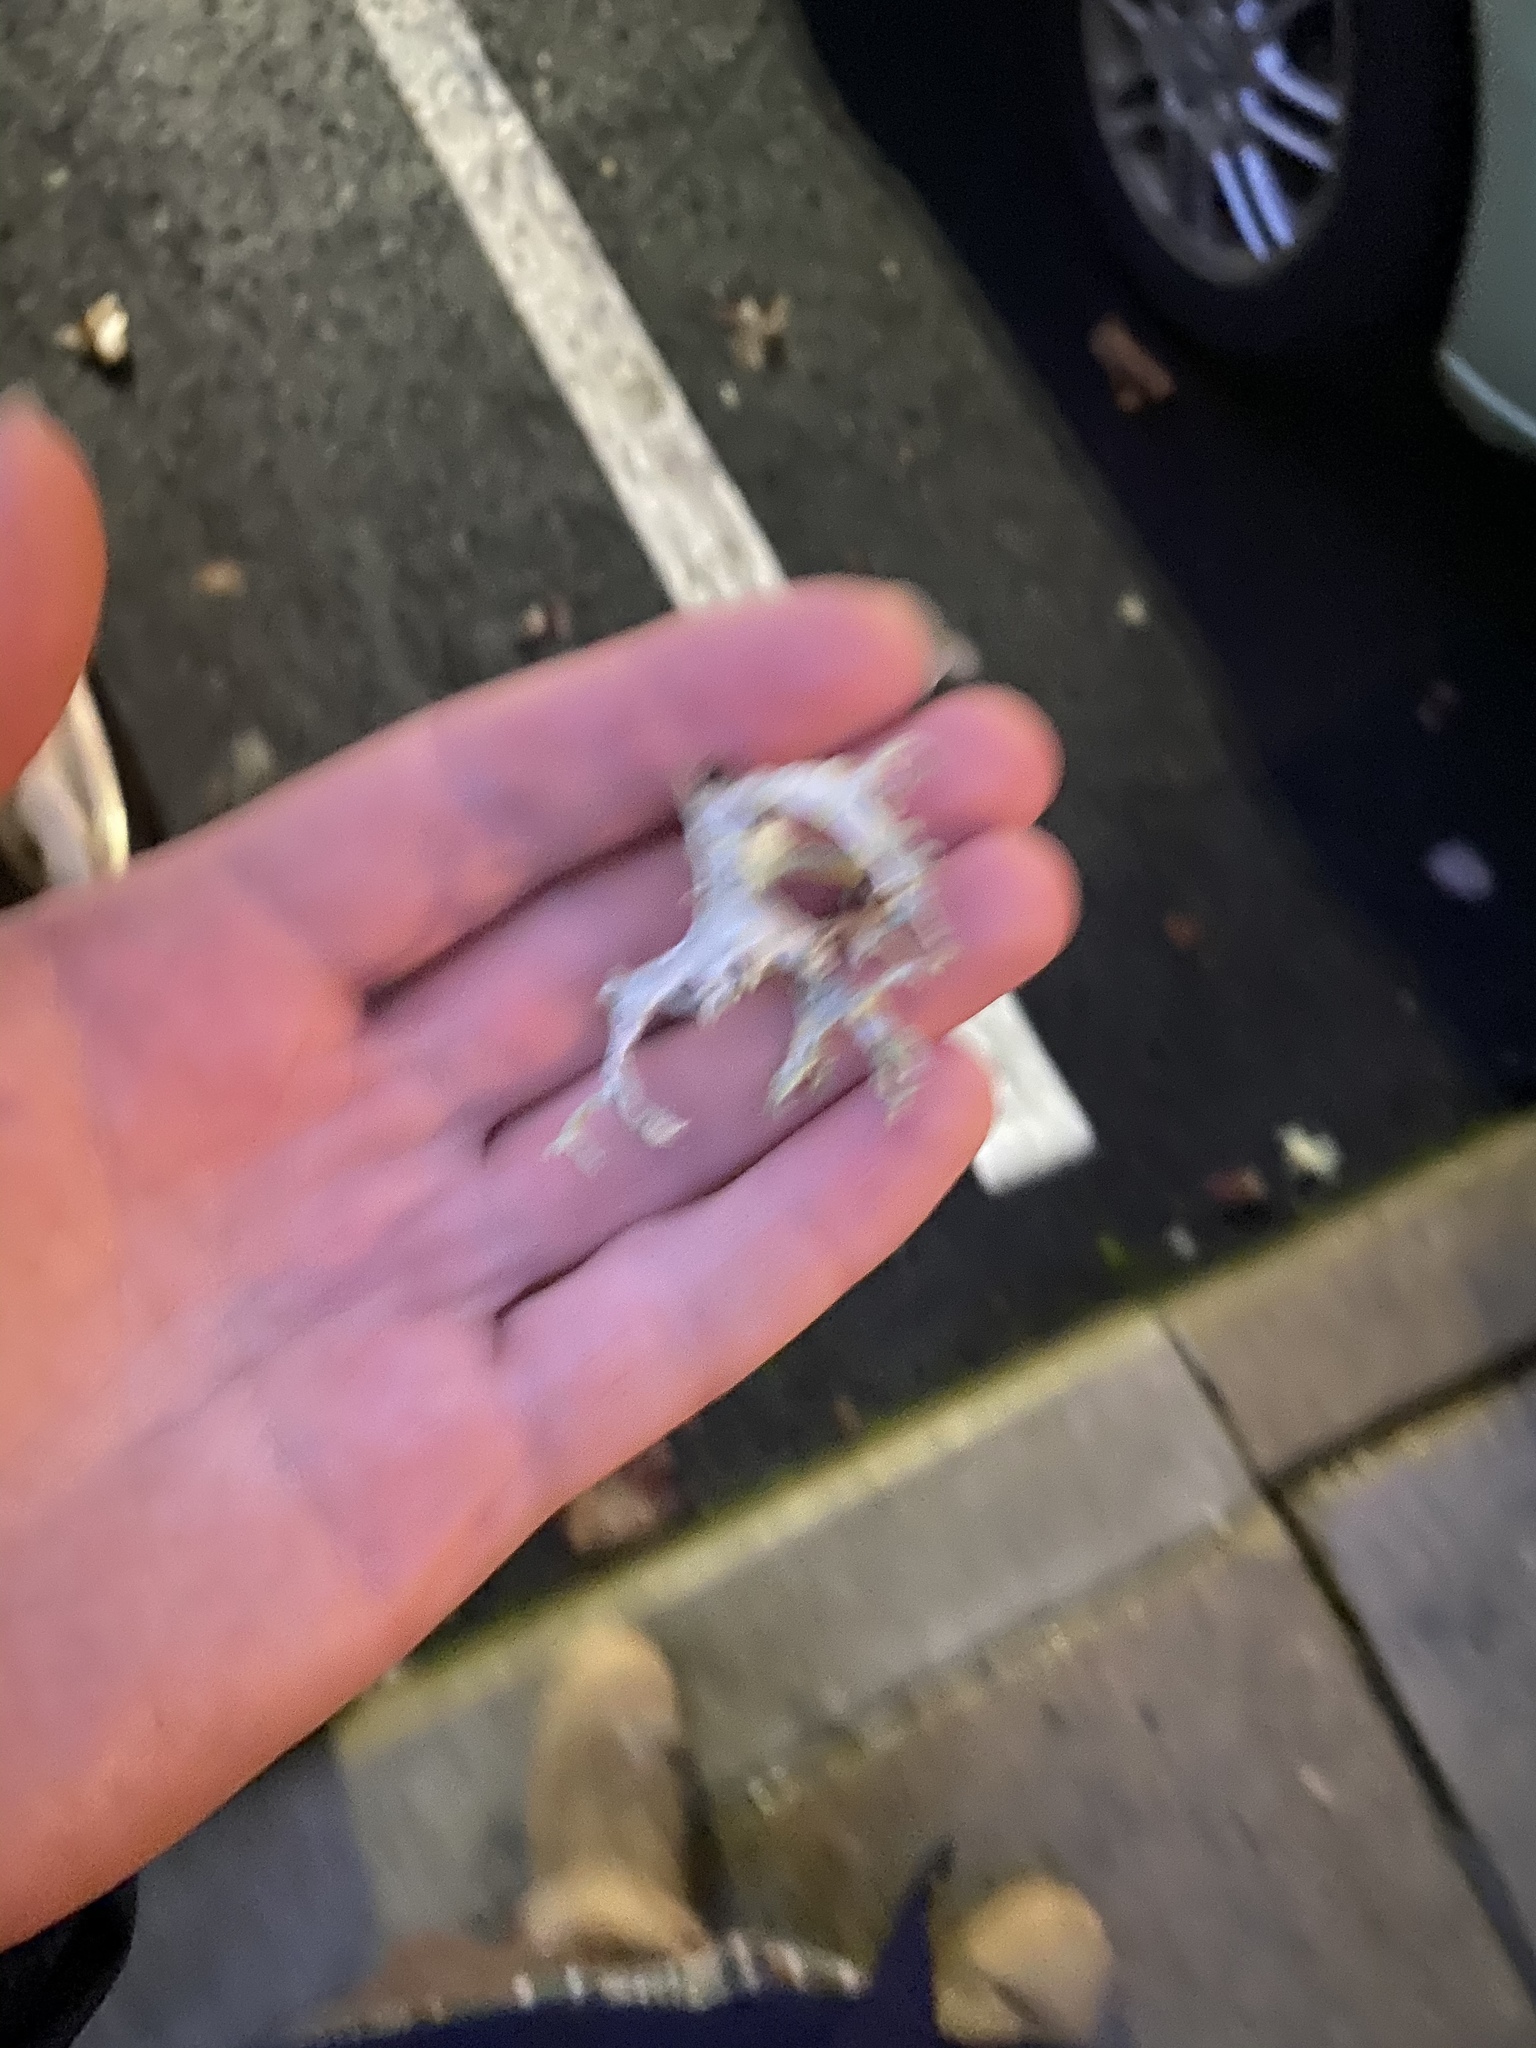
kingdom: Fungi
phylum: Ascomycota
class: Lecanoromycetes
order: Lecanorales
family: Parmeliaceae
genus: Evernia
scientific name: Evernia prunastri
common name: Oak moss
